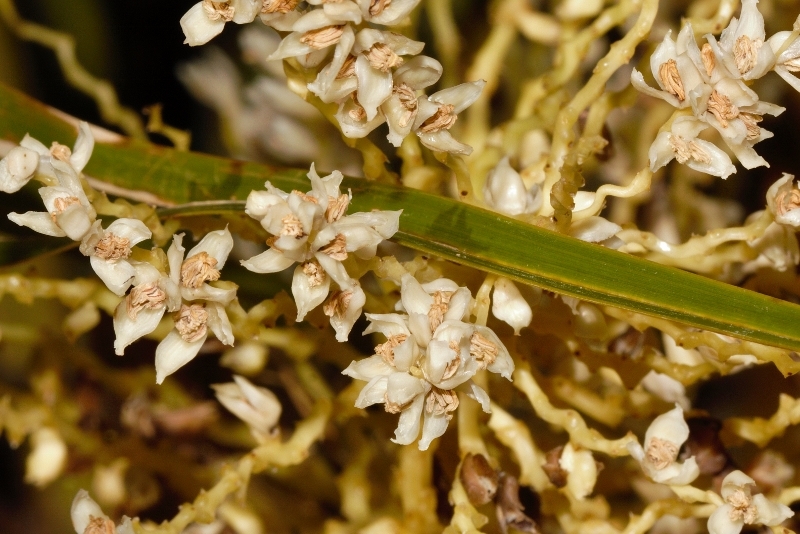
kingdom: Plantae
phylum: Tracheophyta
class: Liliopsida
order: Arecales
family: Arecaceae
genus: Phoenix
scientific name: Phoenix reclinata
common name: Senegal date palm
